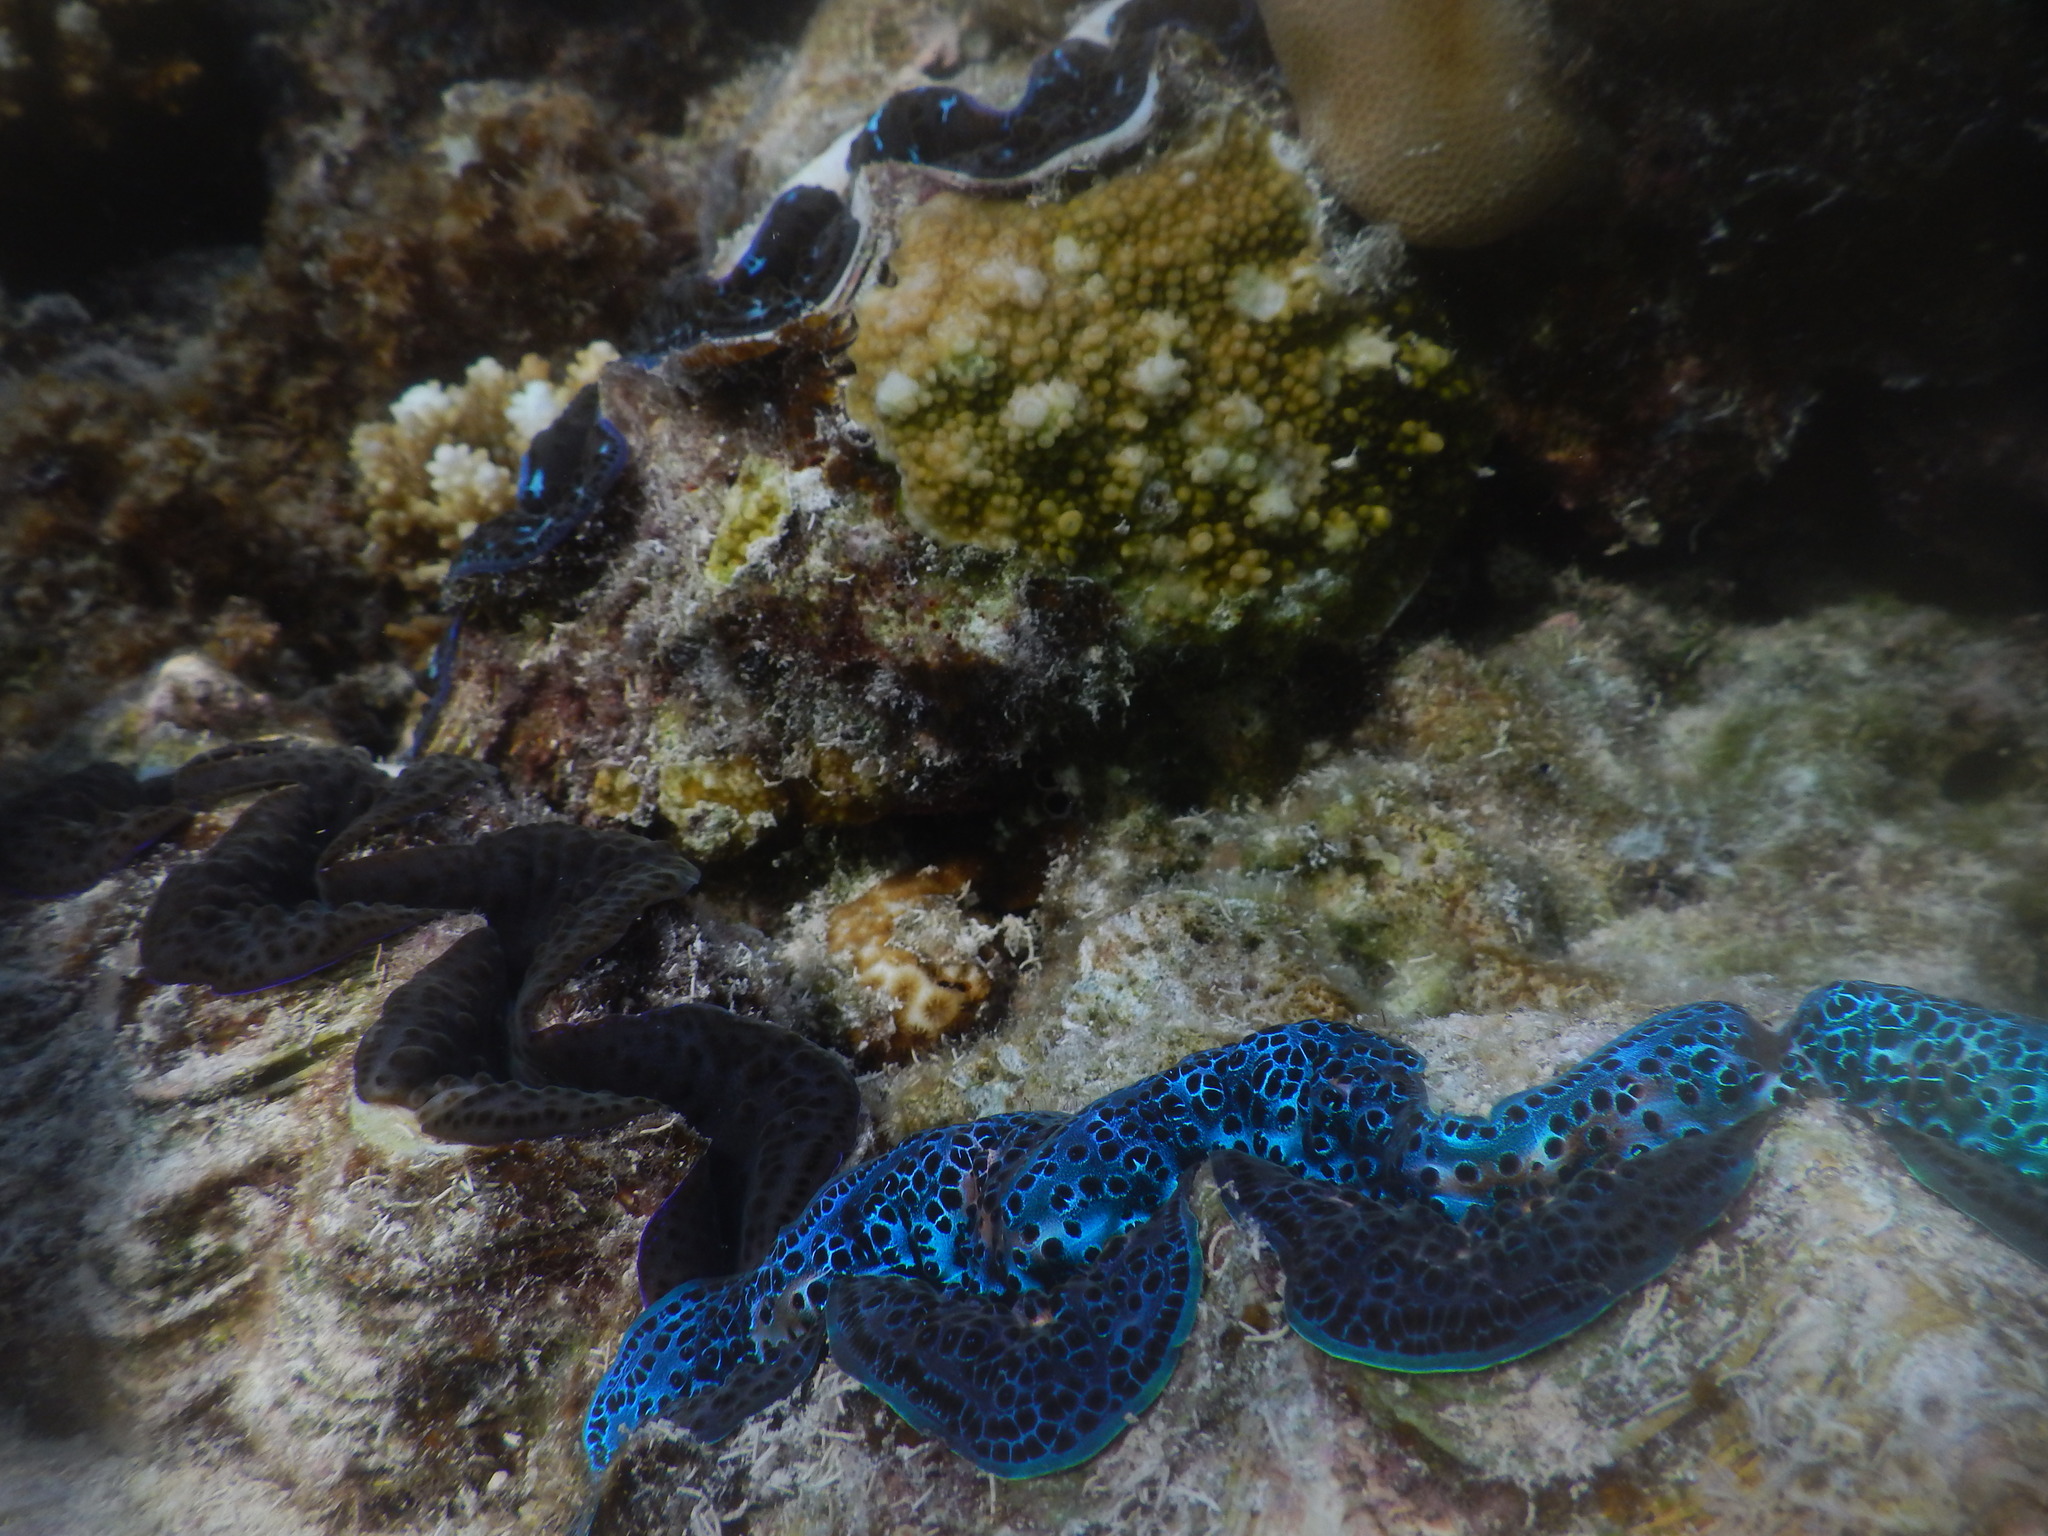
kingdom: Animalia
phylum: Mollusca
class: Bivalvia
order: Cardiida
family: Cardiidae
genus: Tridacna
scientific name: Tridacna maxima
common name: Small giant clam
